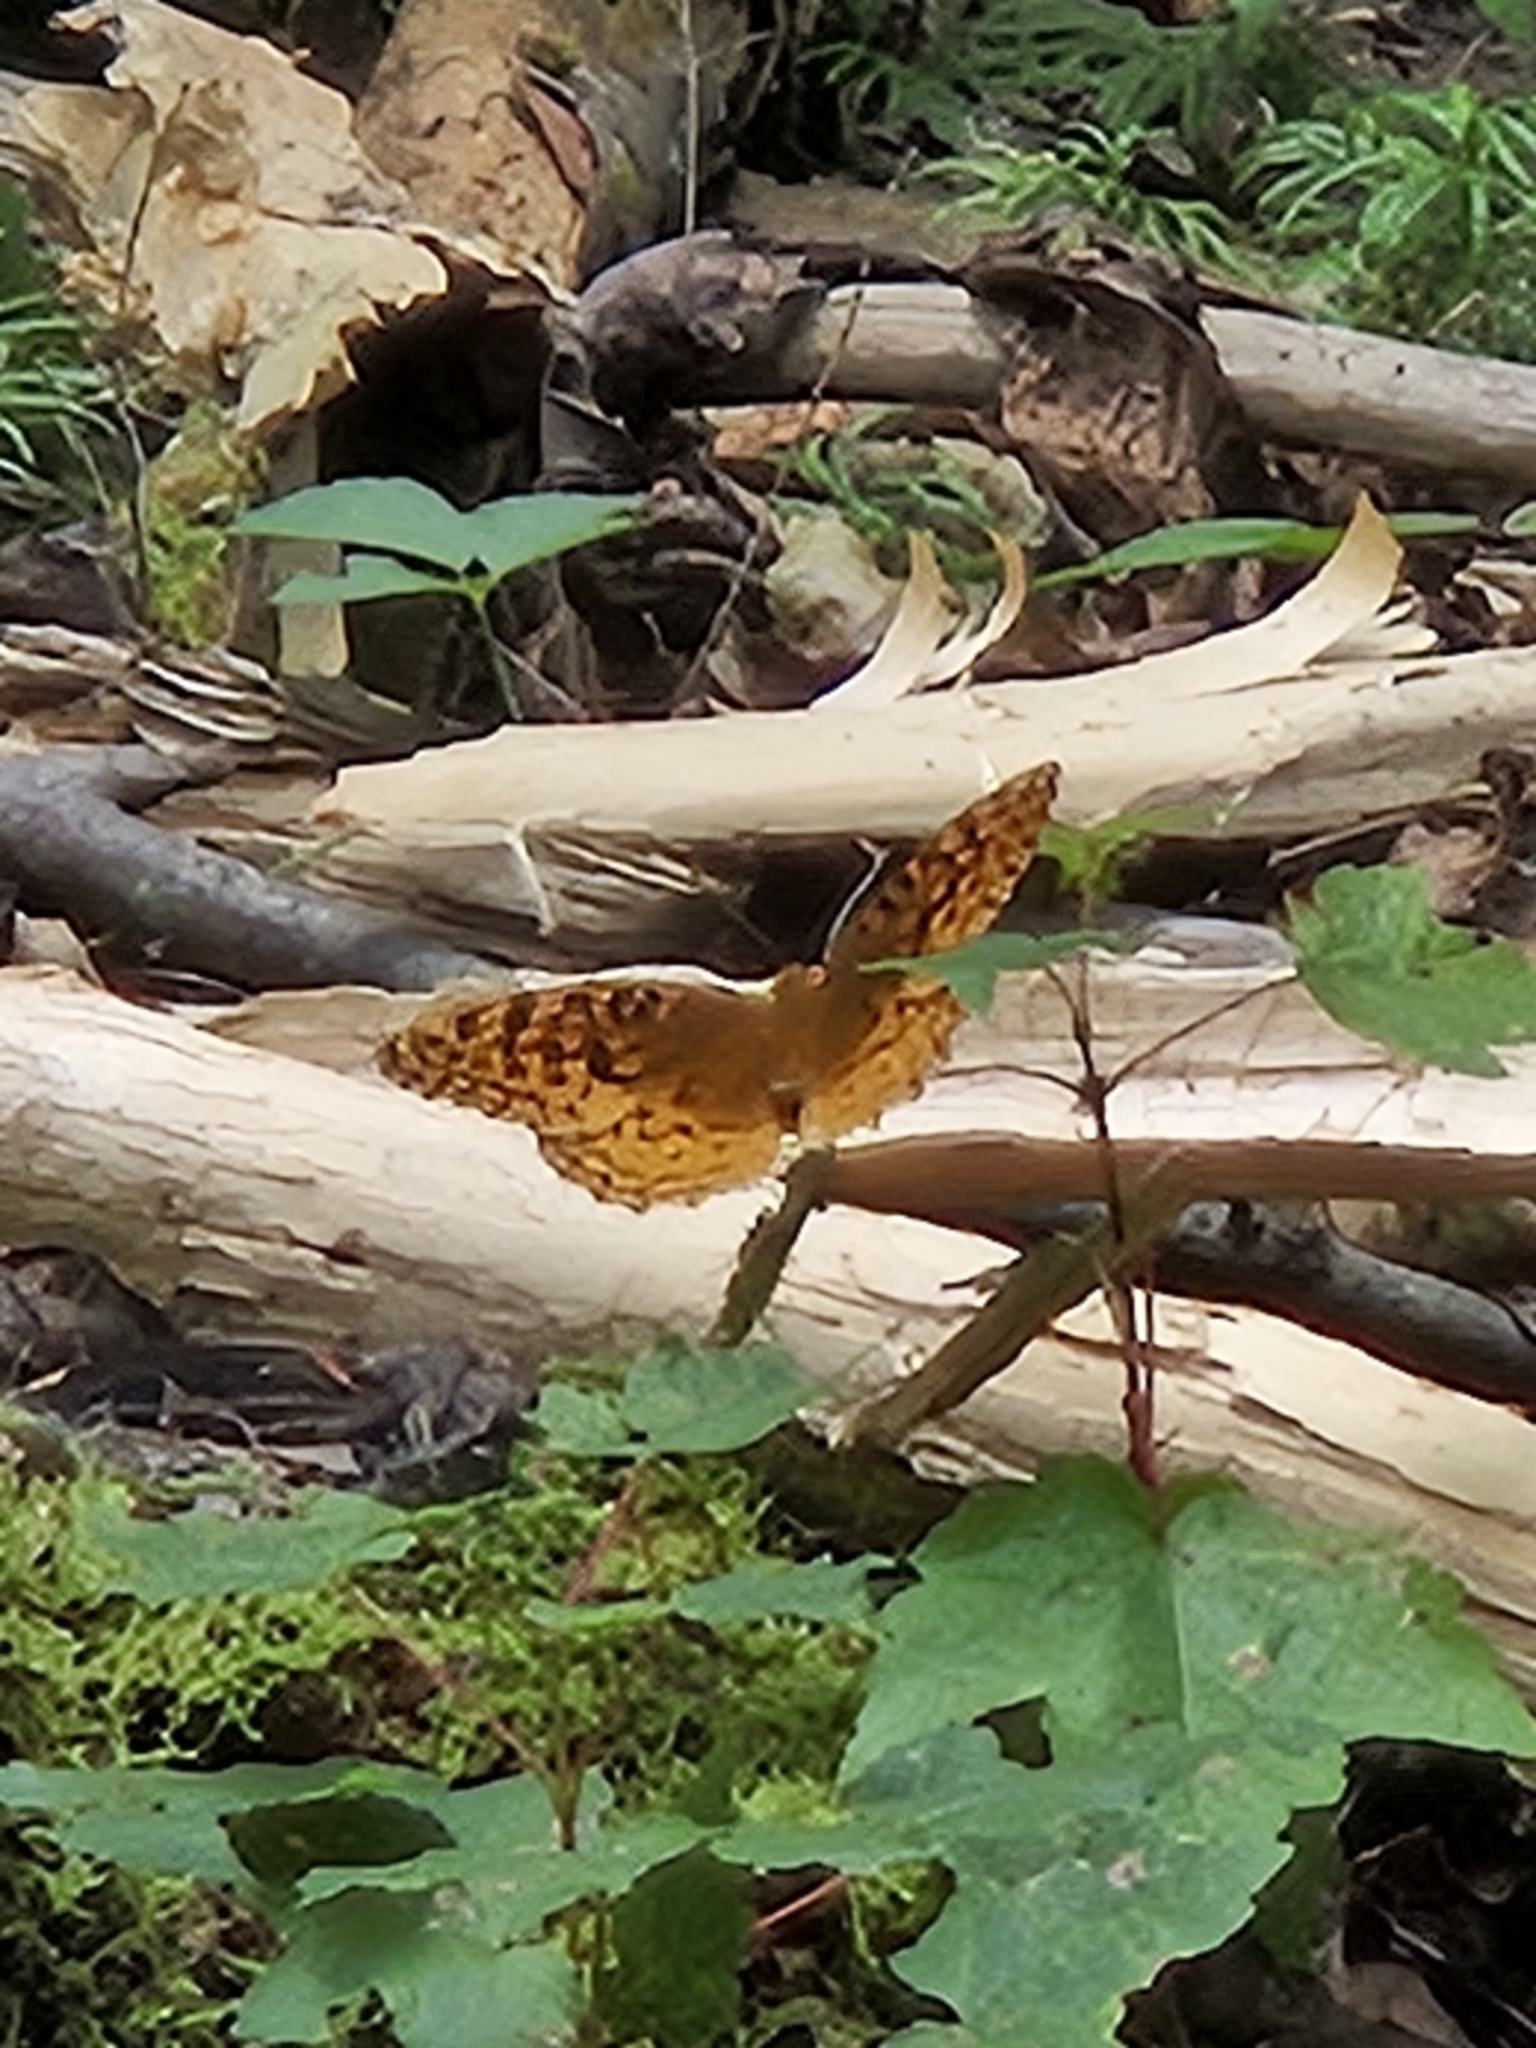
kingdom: Animalia
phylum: Arthropoda
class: Insecta
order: Lepidoptera
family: Nymphalidae
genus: Speyeria
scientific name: Speyeria cybele
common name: Great spangled fritillary
